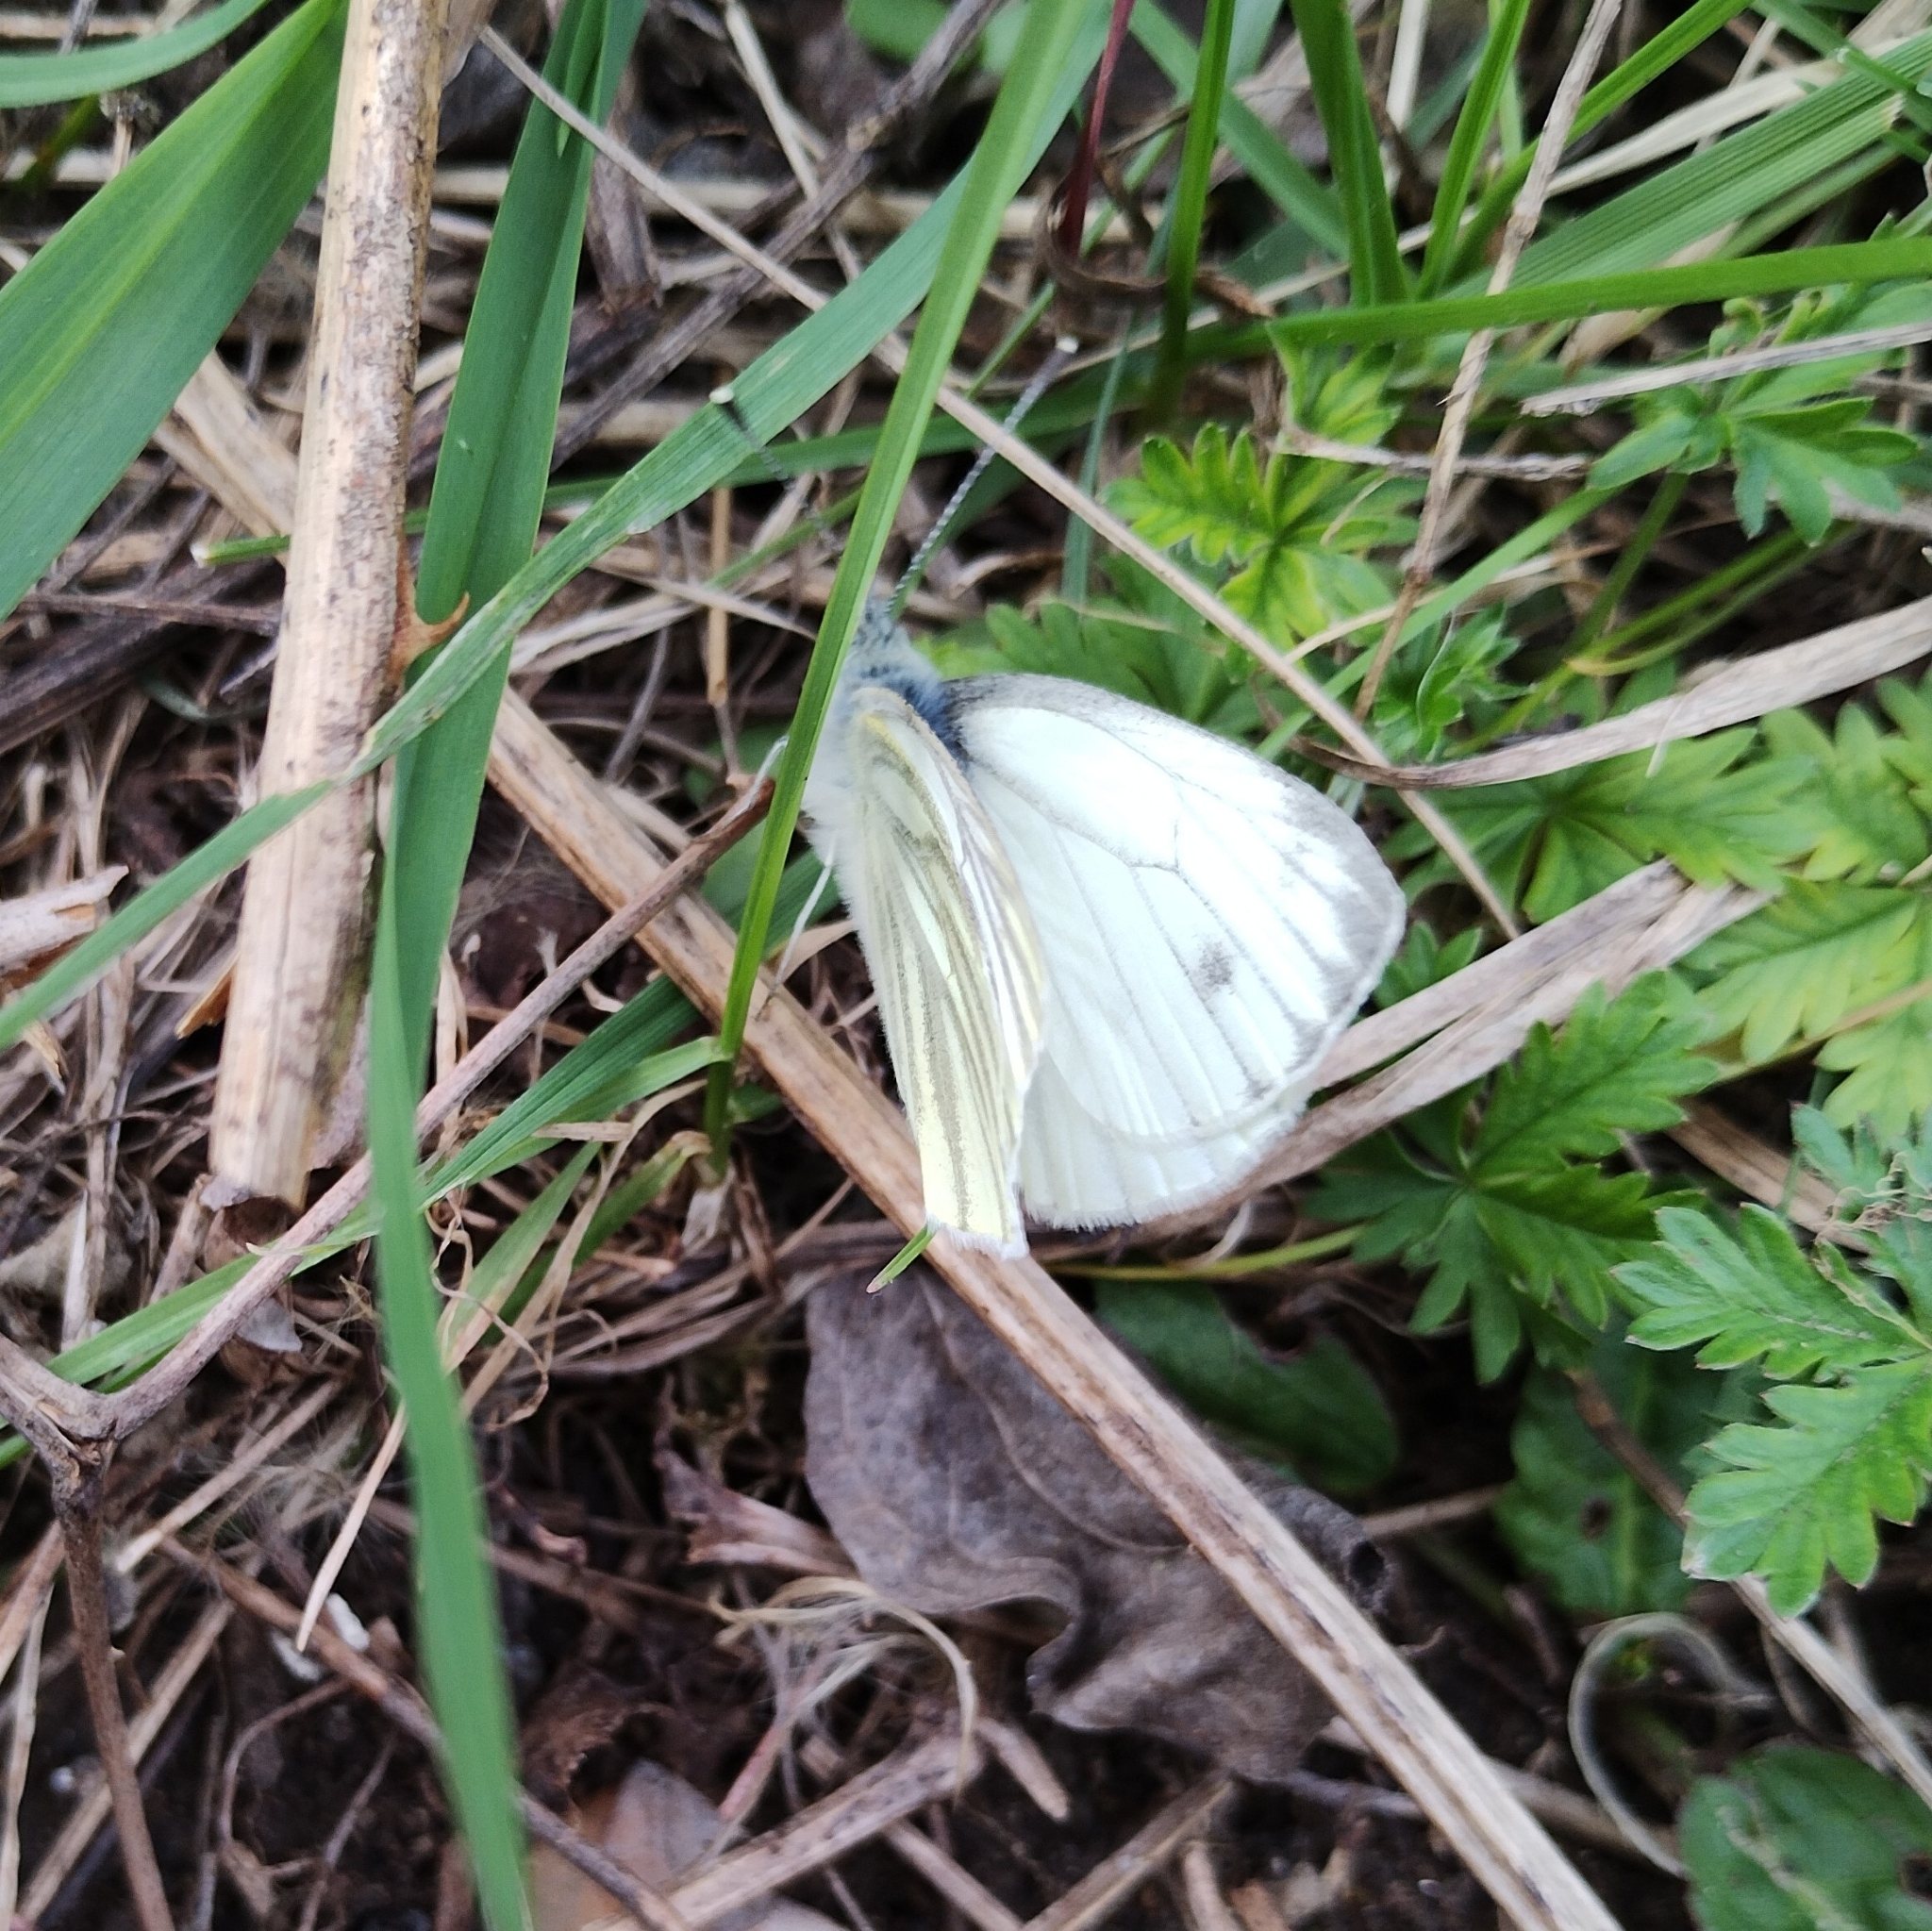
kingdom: Animalia
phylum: Arthropoda
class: Insecta
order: Lepidoptera
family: Pieridae
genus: Pieris
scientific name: Pieris napi
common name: Green-veined white
